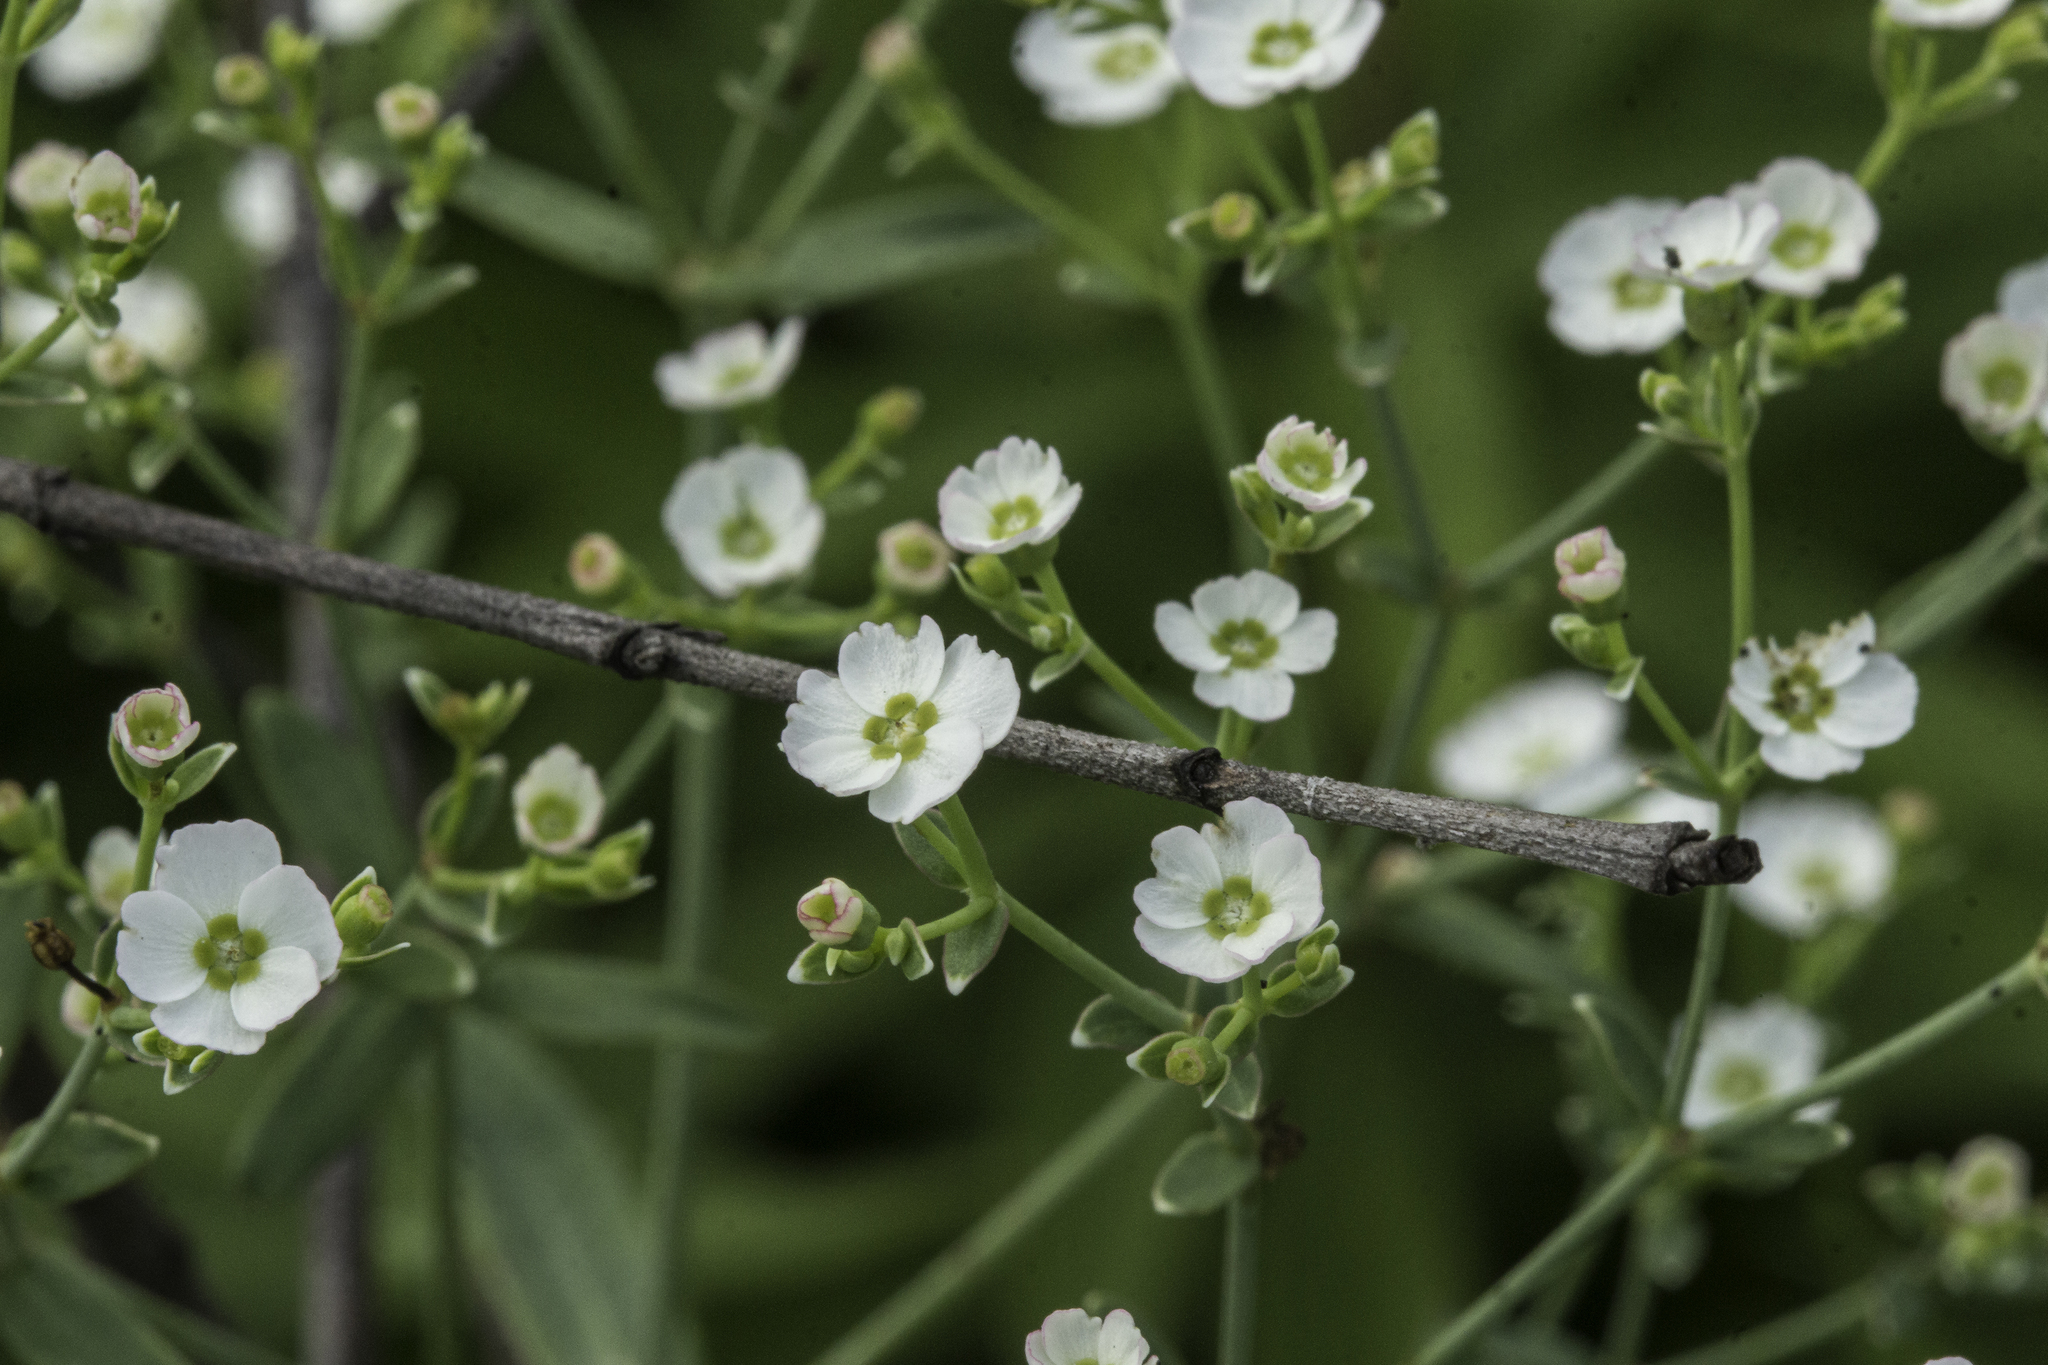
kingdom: Plantae
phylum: Tracheophyta
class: Magnoliopsida
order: Malpighiales
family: Euphorbiaceae
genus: Euphorbia
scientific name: Euphorbia corollata
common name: Flowering spurge
